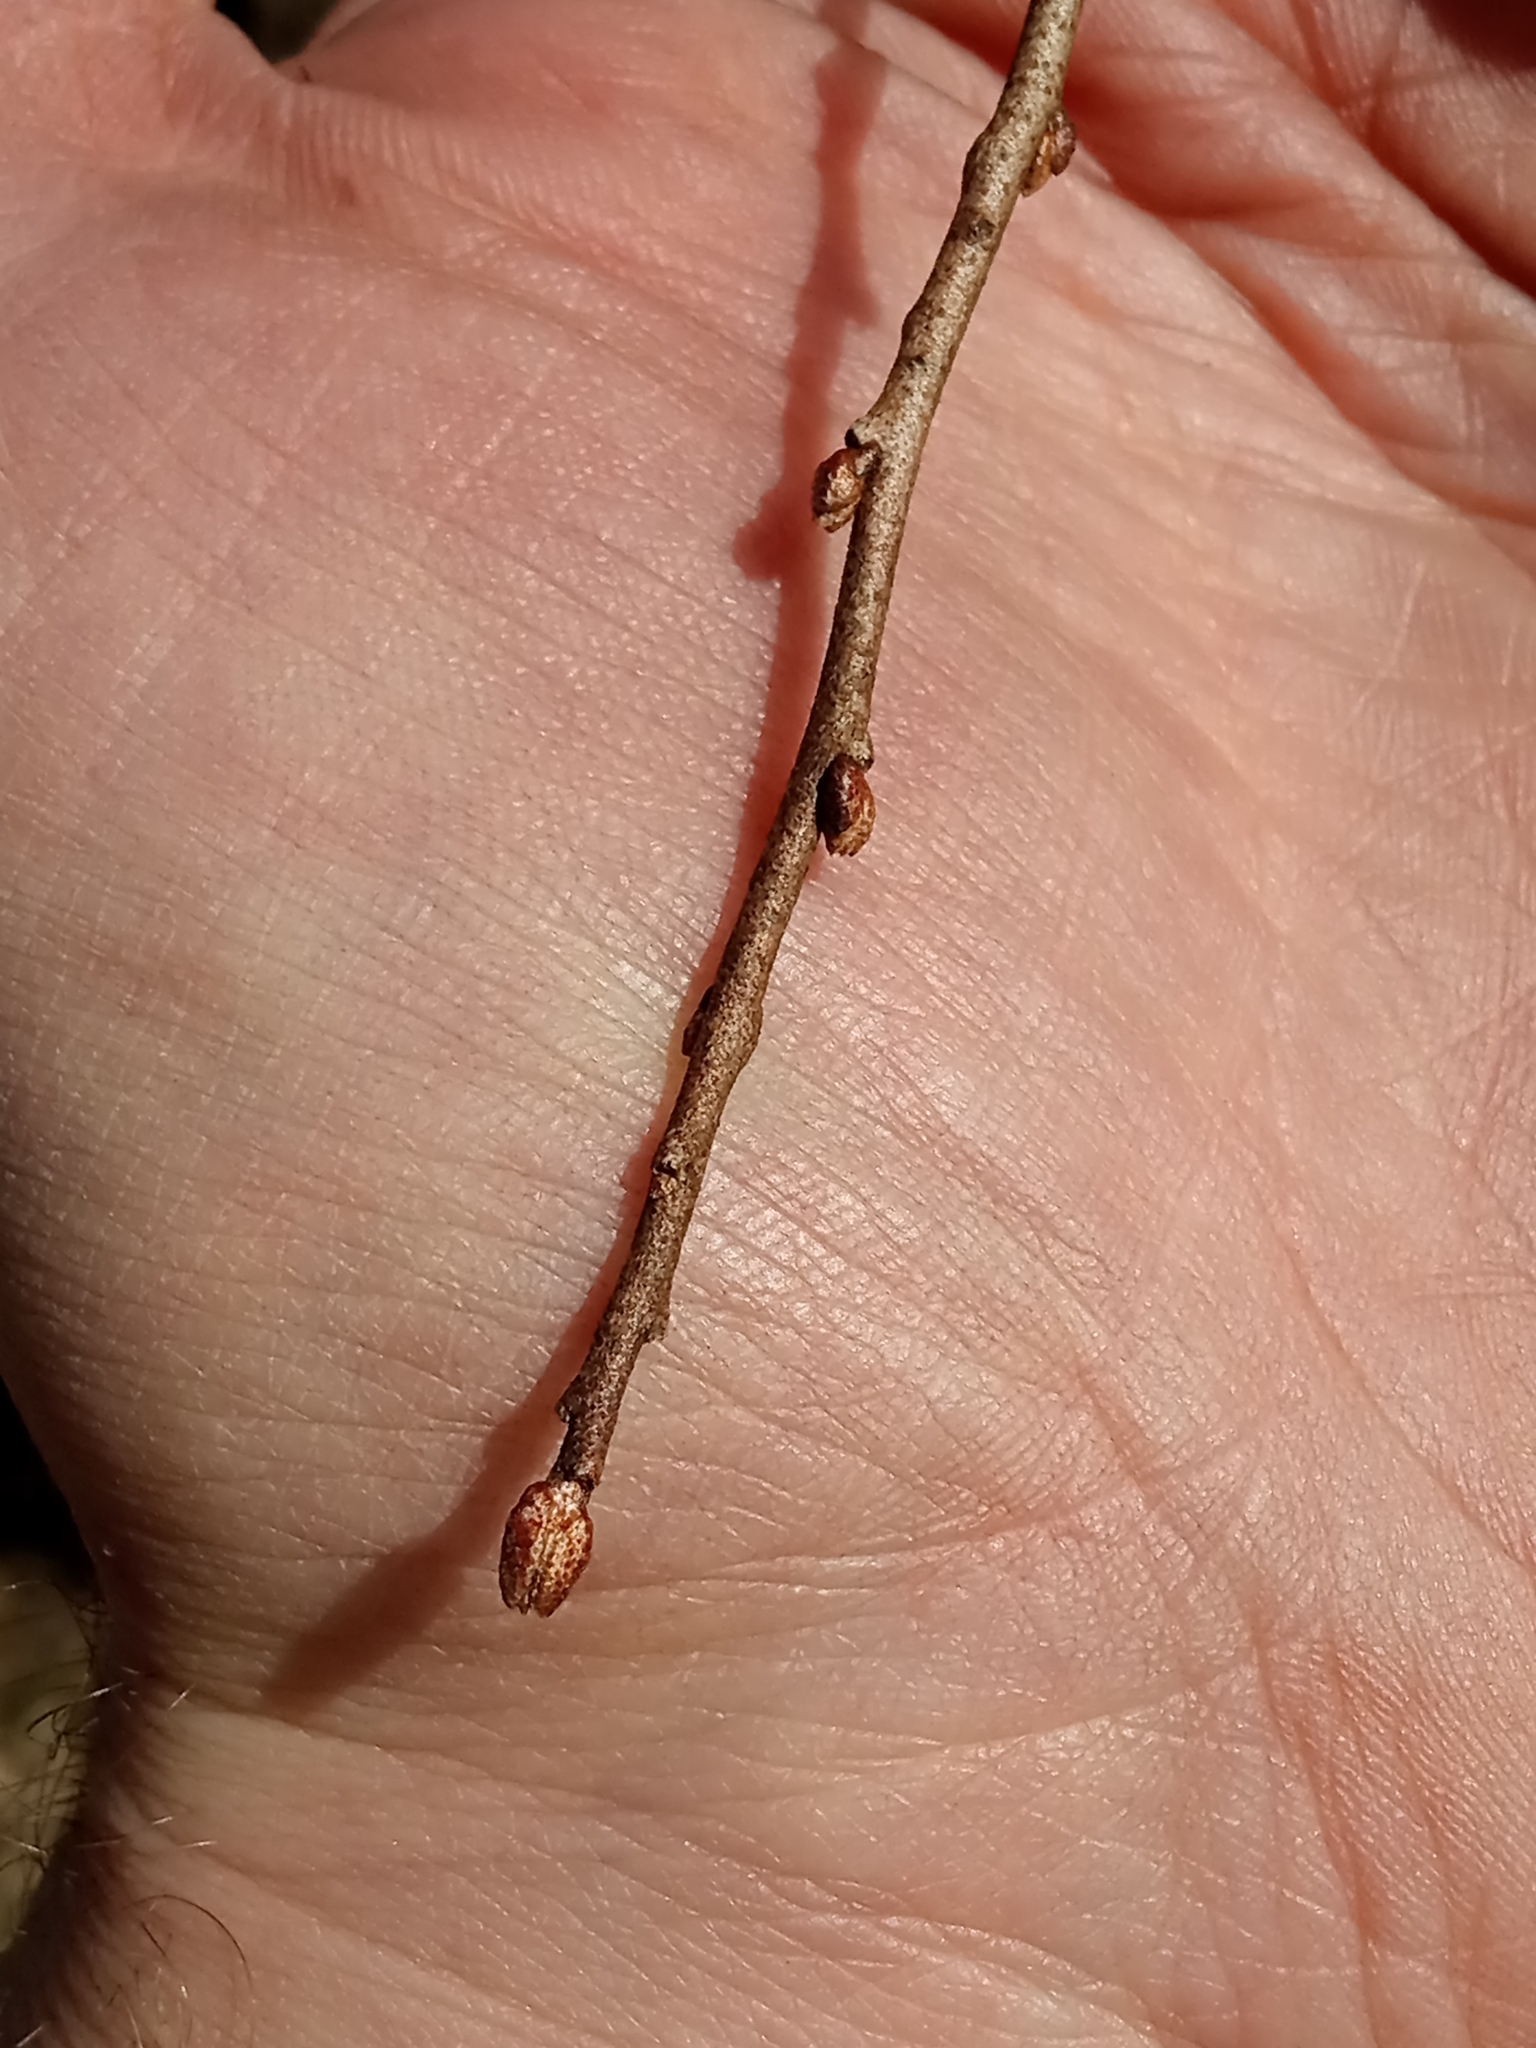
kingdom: Plantae
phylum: Tracheophyta
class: Magnoliopsida
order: Rosales
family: Elaeagnaceae
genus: Elaeagnus
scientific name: Elaeagnus umbellata
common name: Autumn olive
